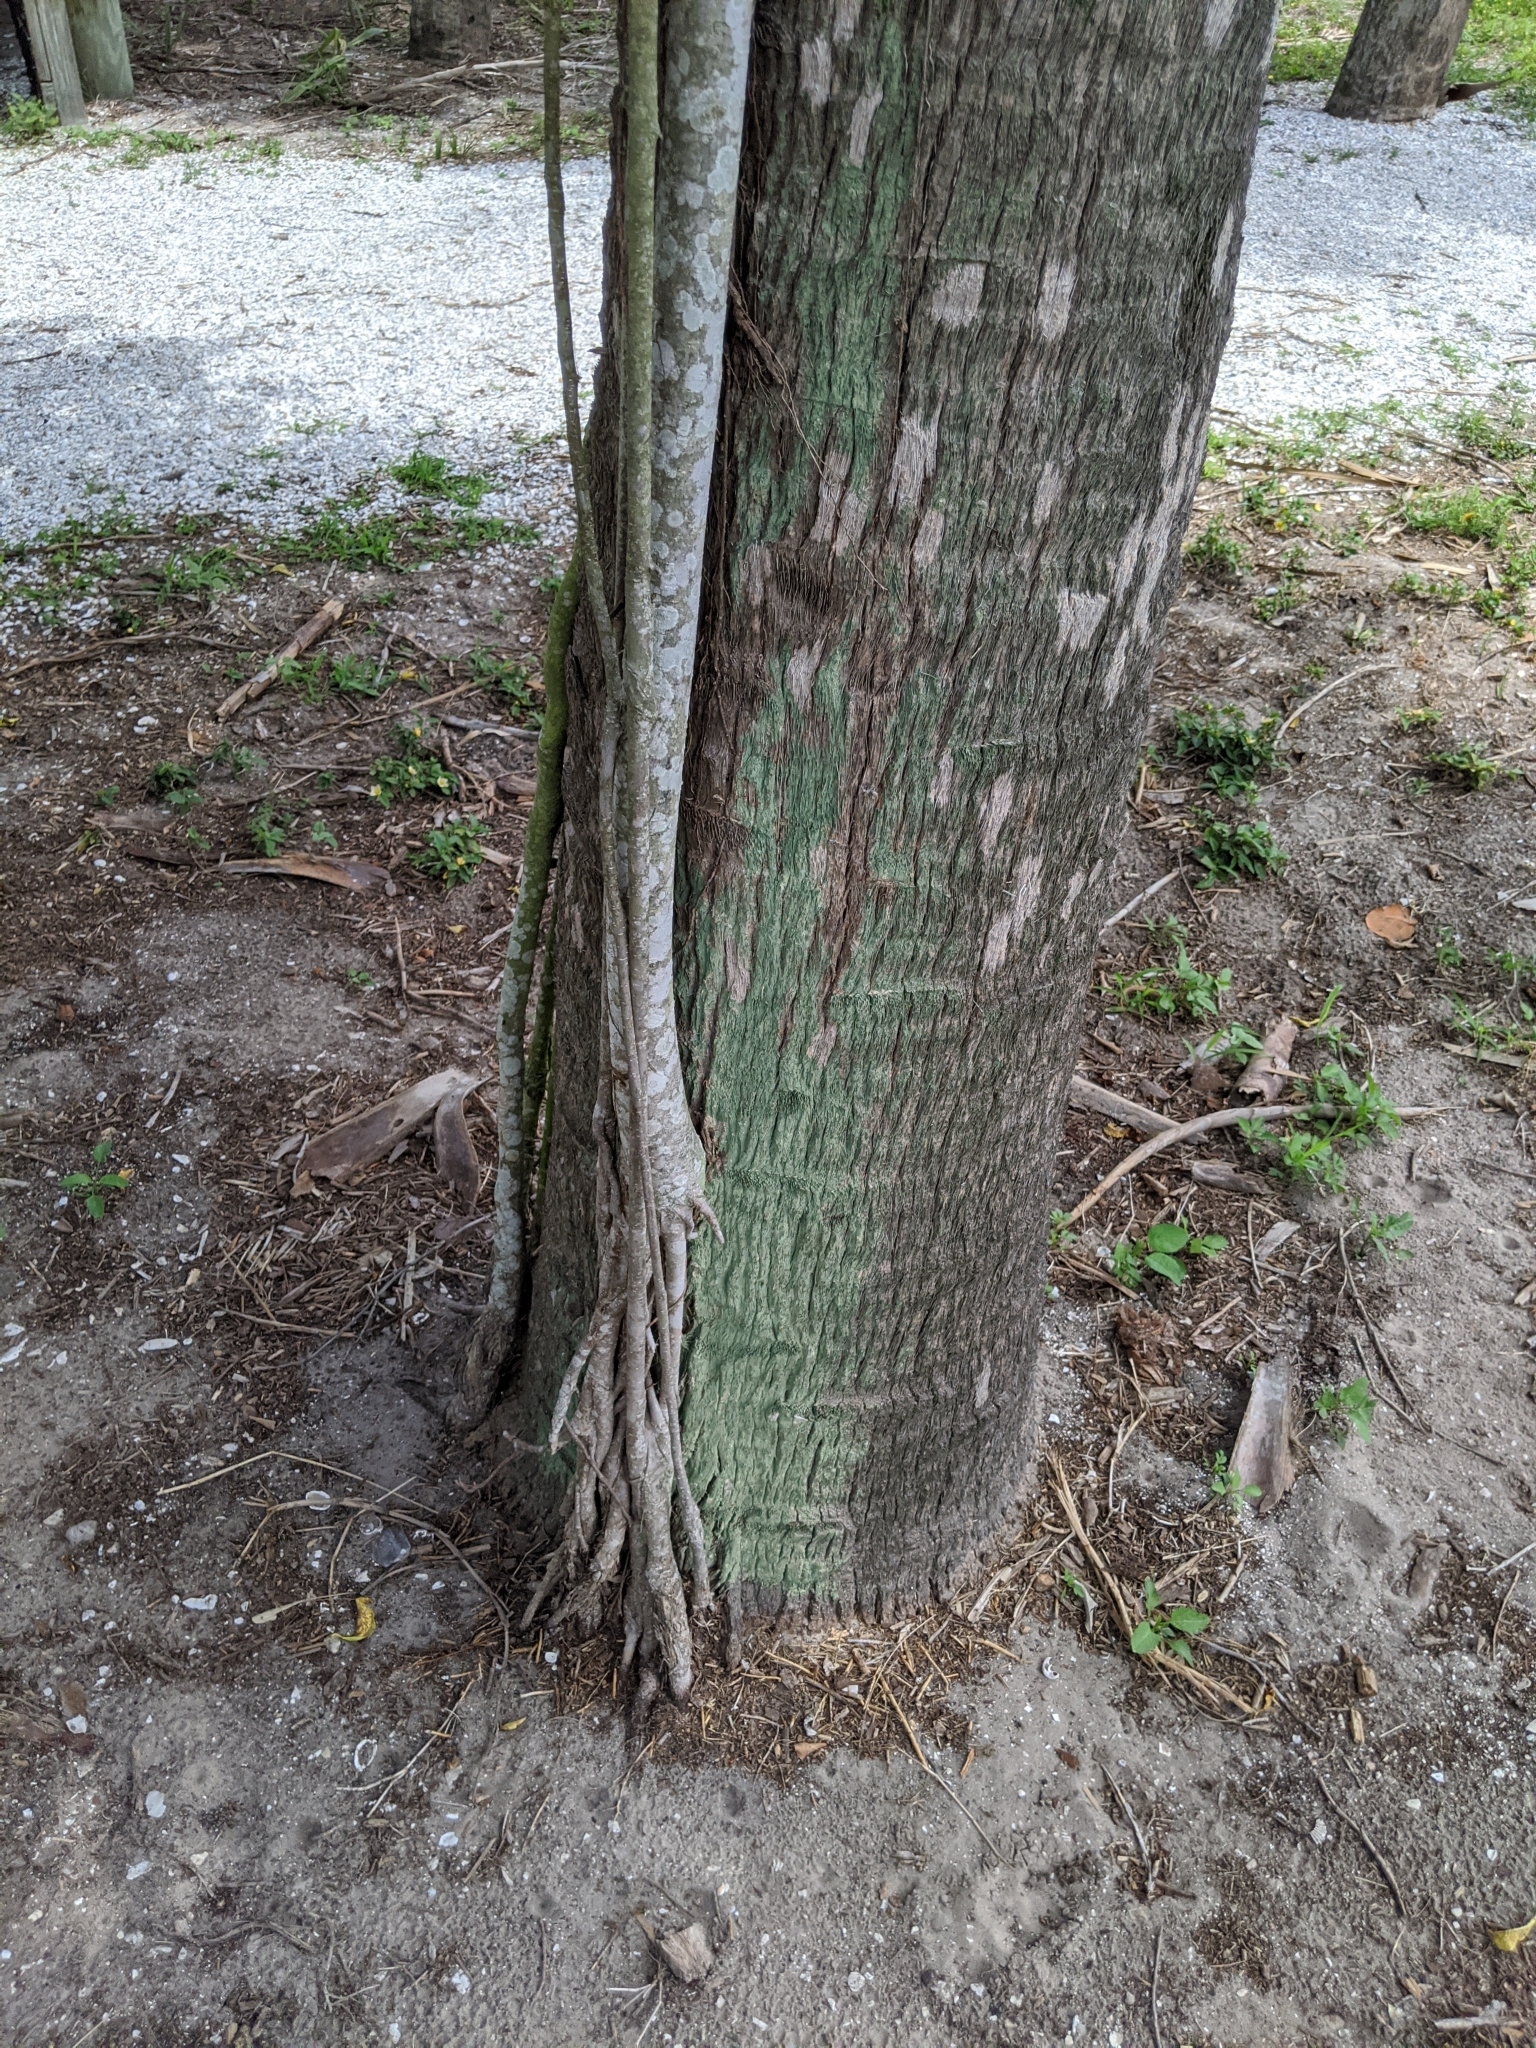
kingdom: Plantae
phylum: Tracheophyta
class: Magnoliopsida
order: Rosales
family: Moraceae
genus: Ficus
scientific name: Ficus microcarpa
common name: Chinese banyan
